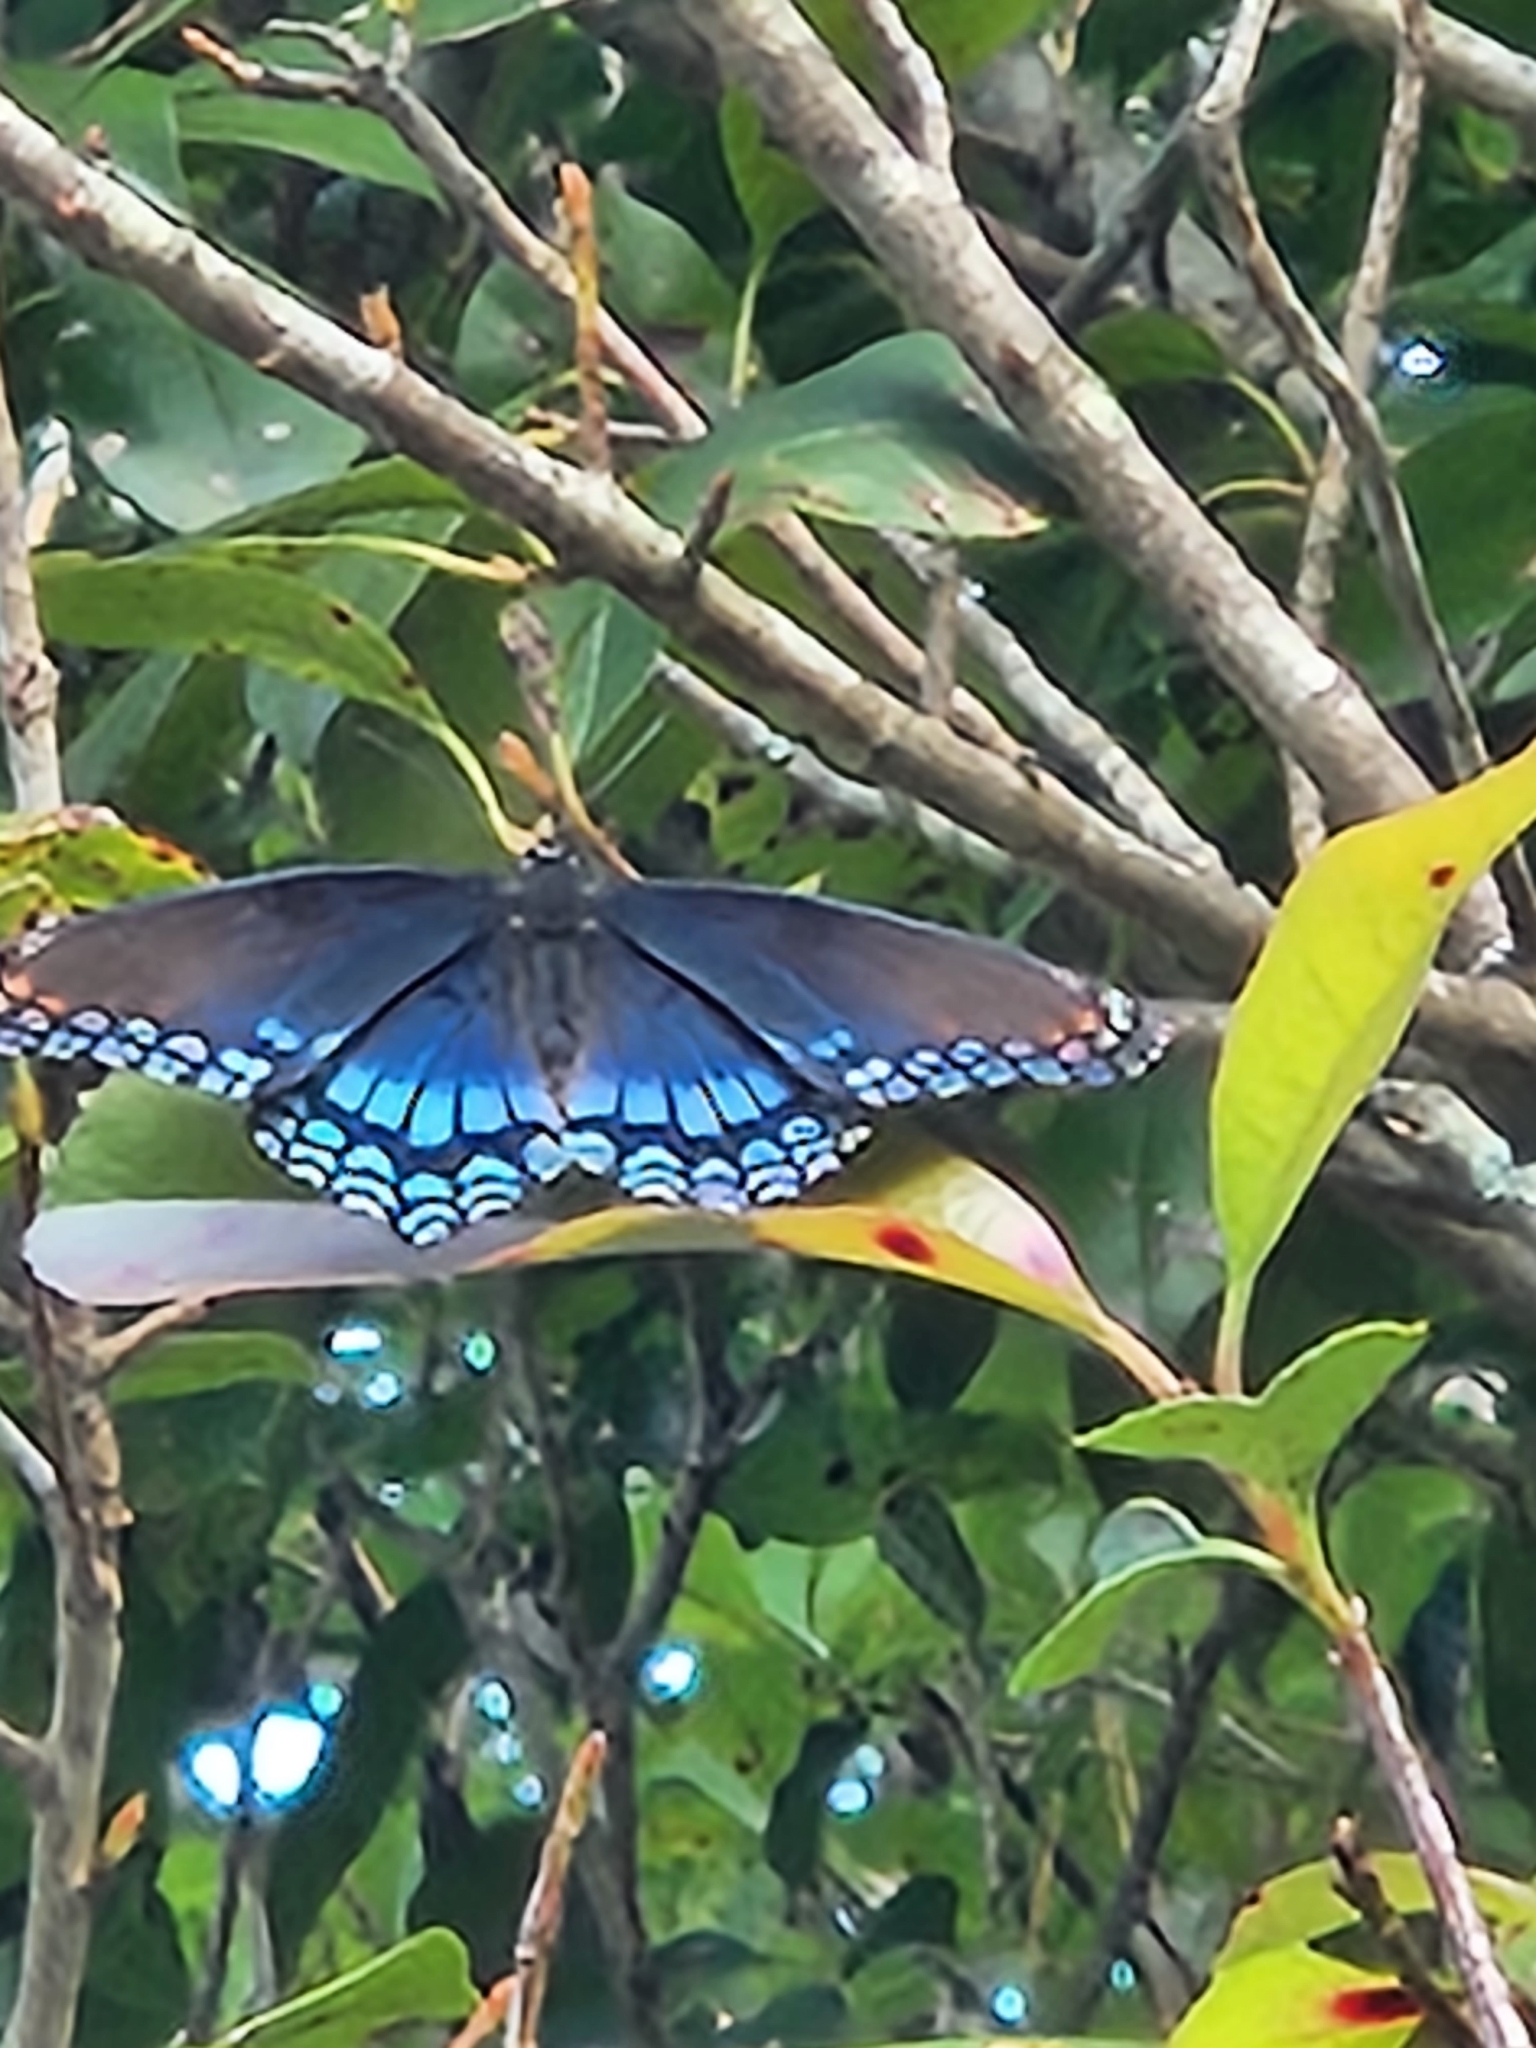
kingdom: Animalia
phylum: Arthropoda
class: Insecta
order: Lepidoptera
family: Nymphalidae
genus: Limenitis
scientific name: Limenitis astyanax
